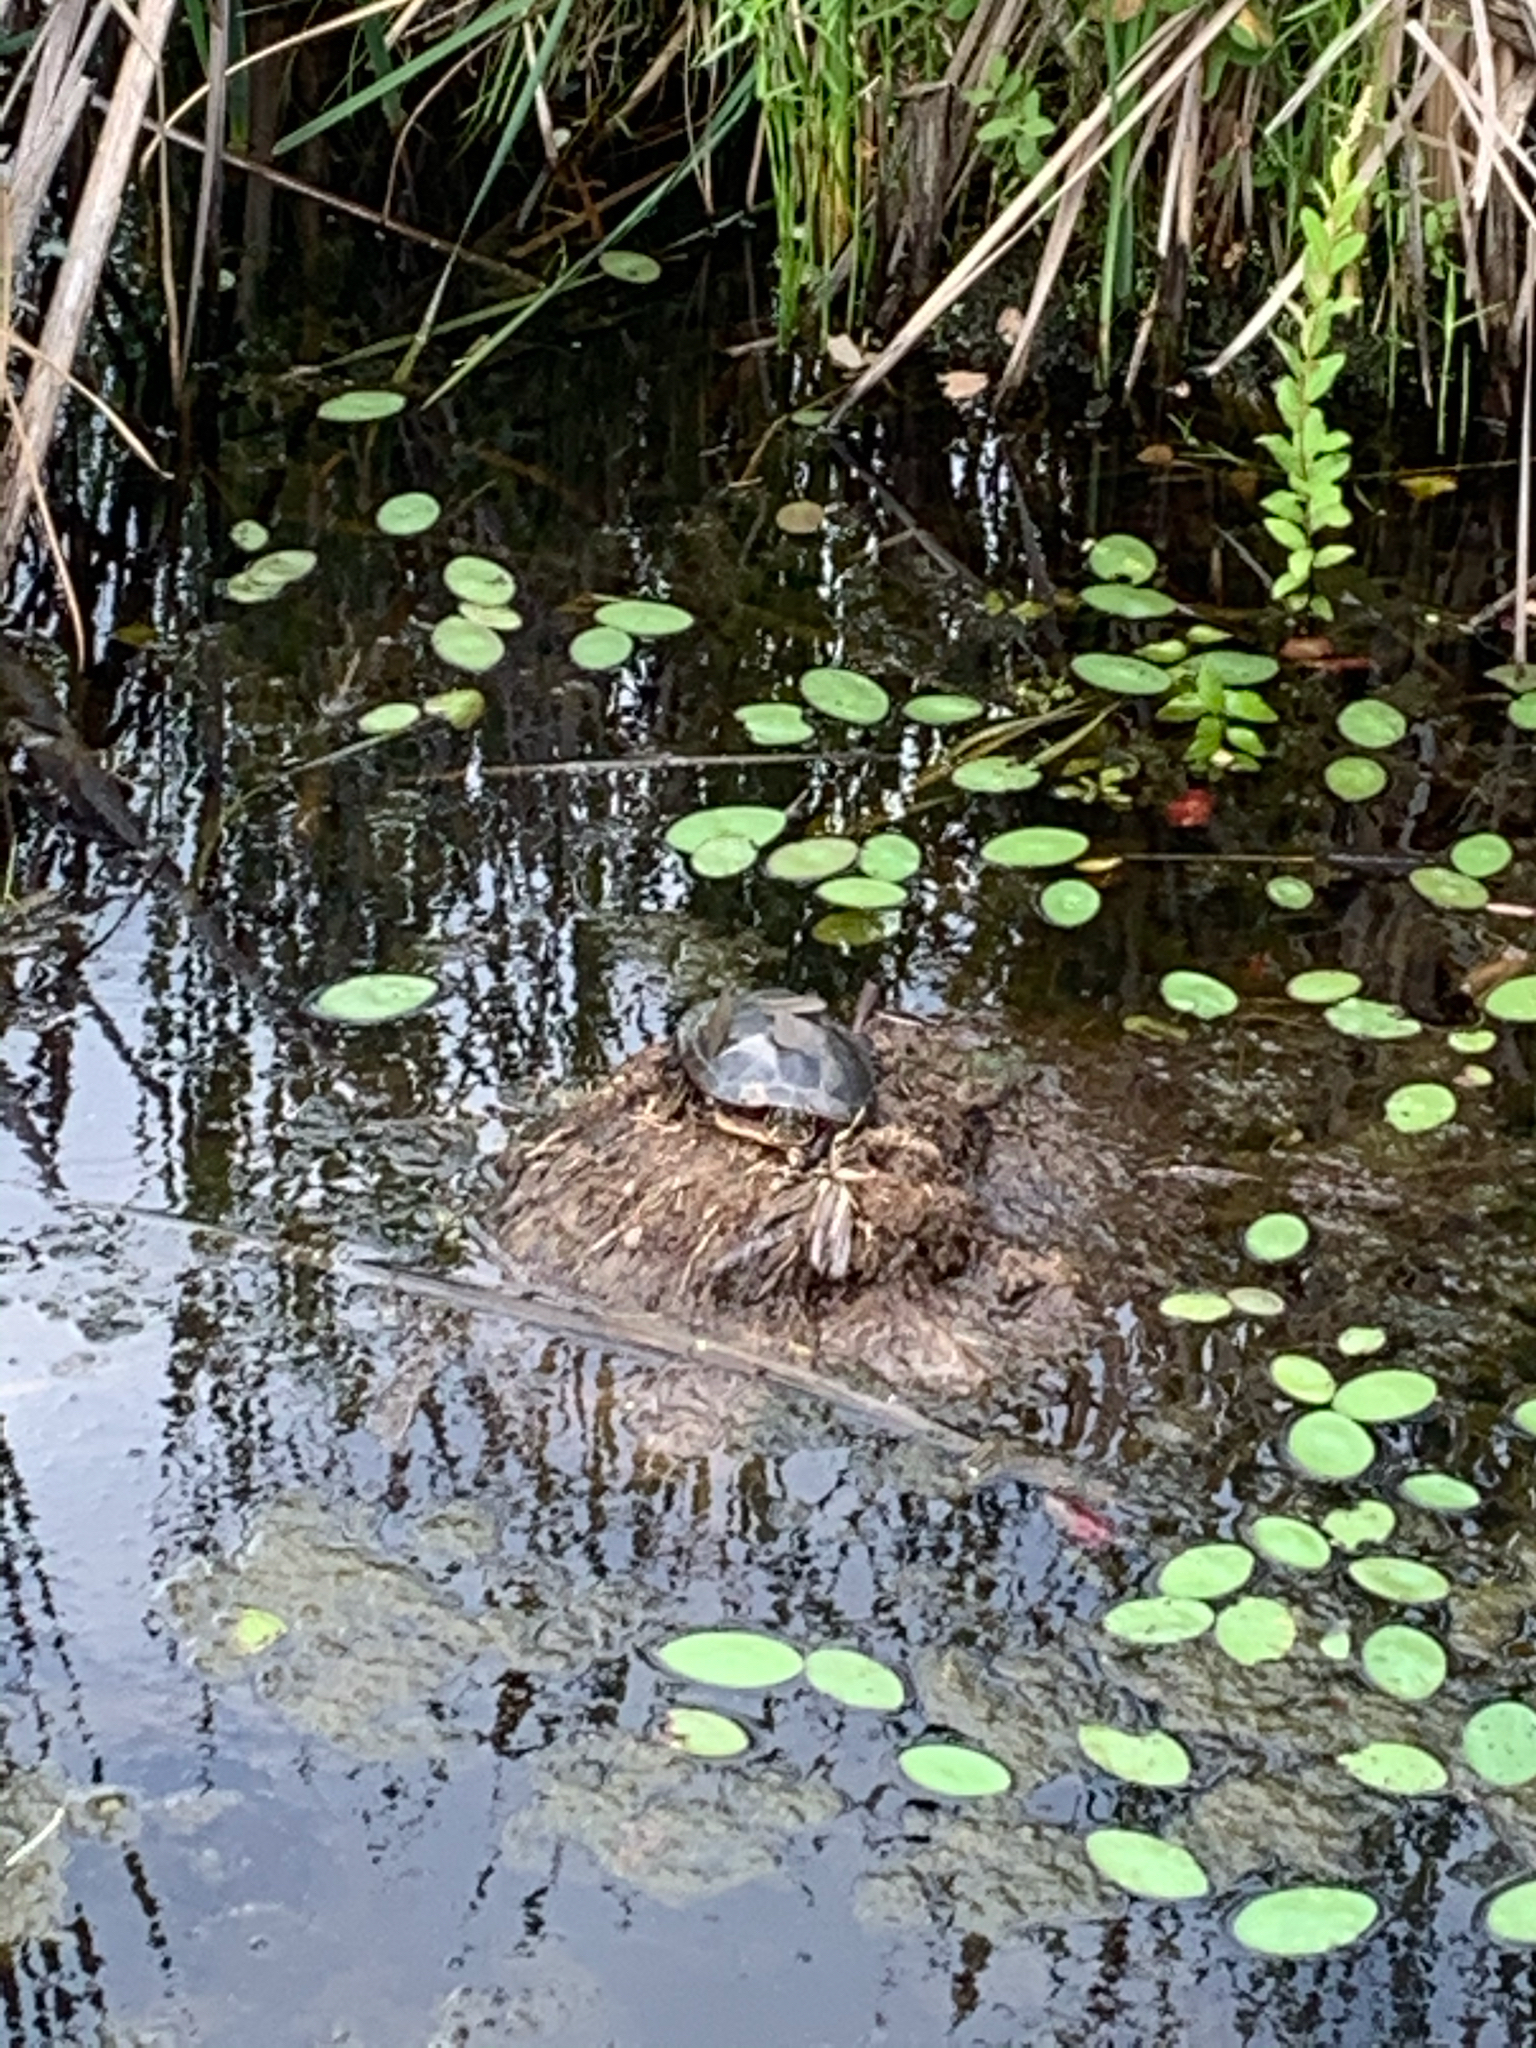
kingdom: Animalia
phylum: Chordata
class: Testudines
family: Emydidae
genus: Chrysemys
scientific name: Chrysemys picta
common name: Painted turtle
